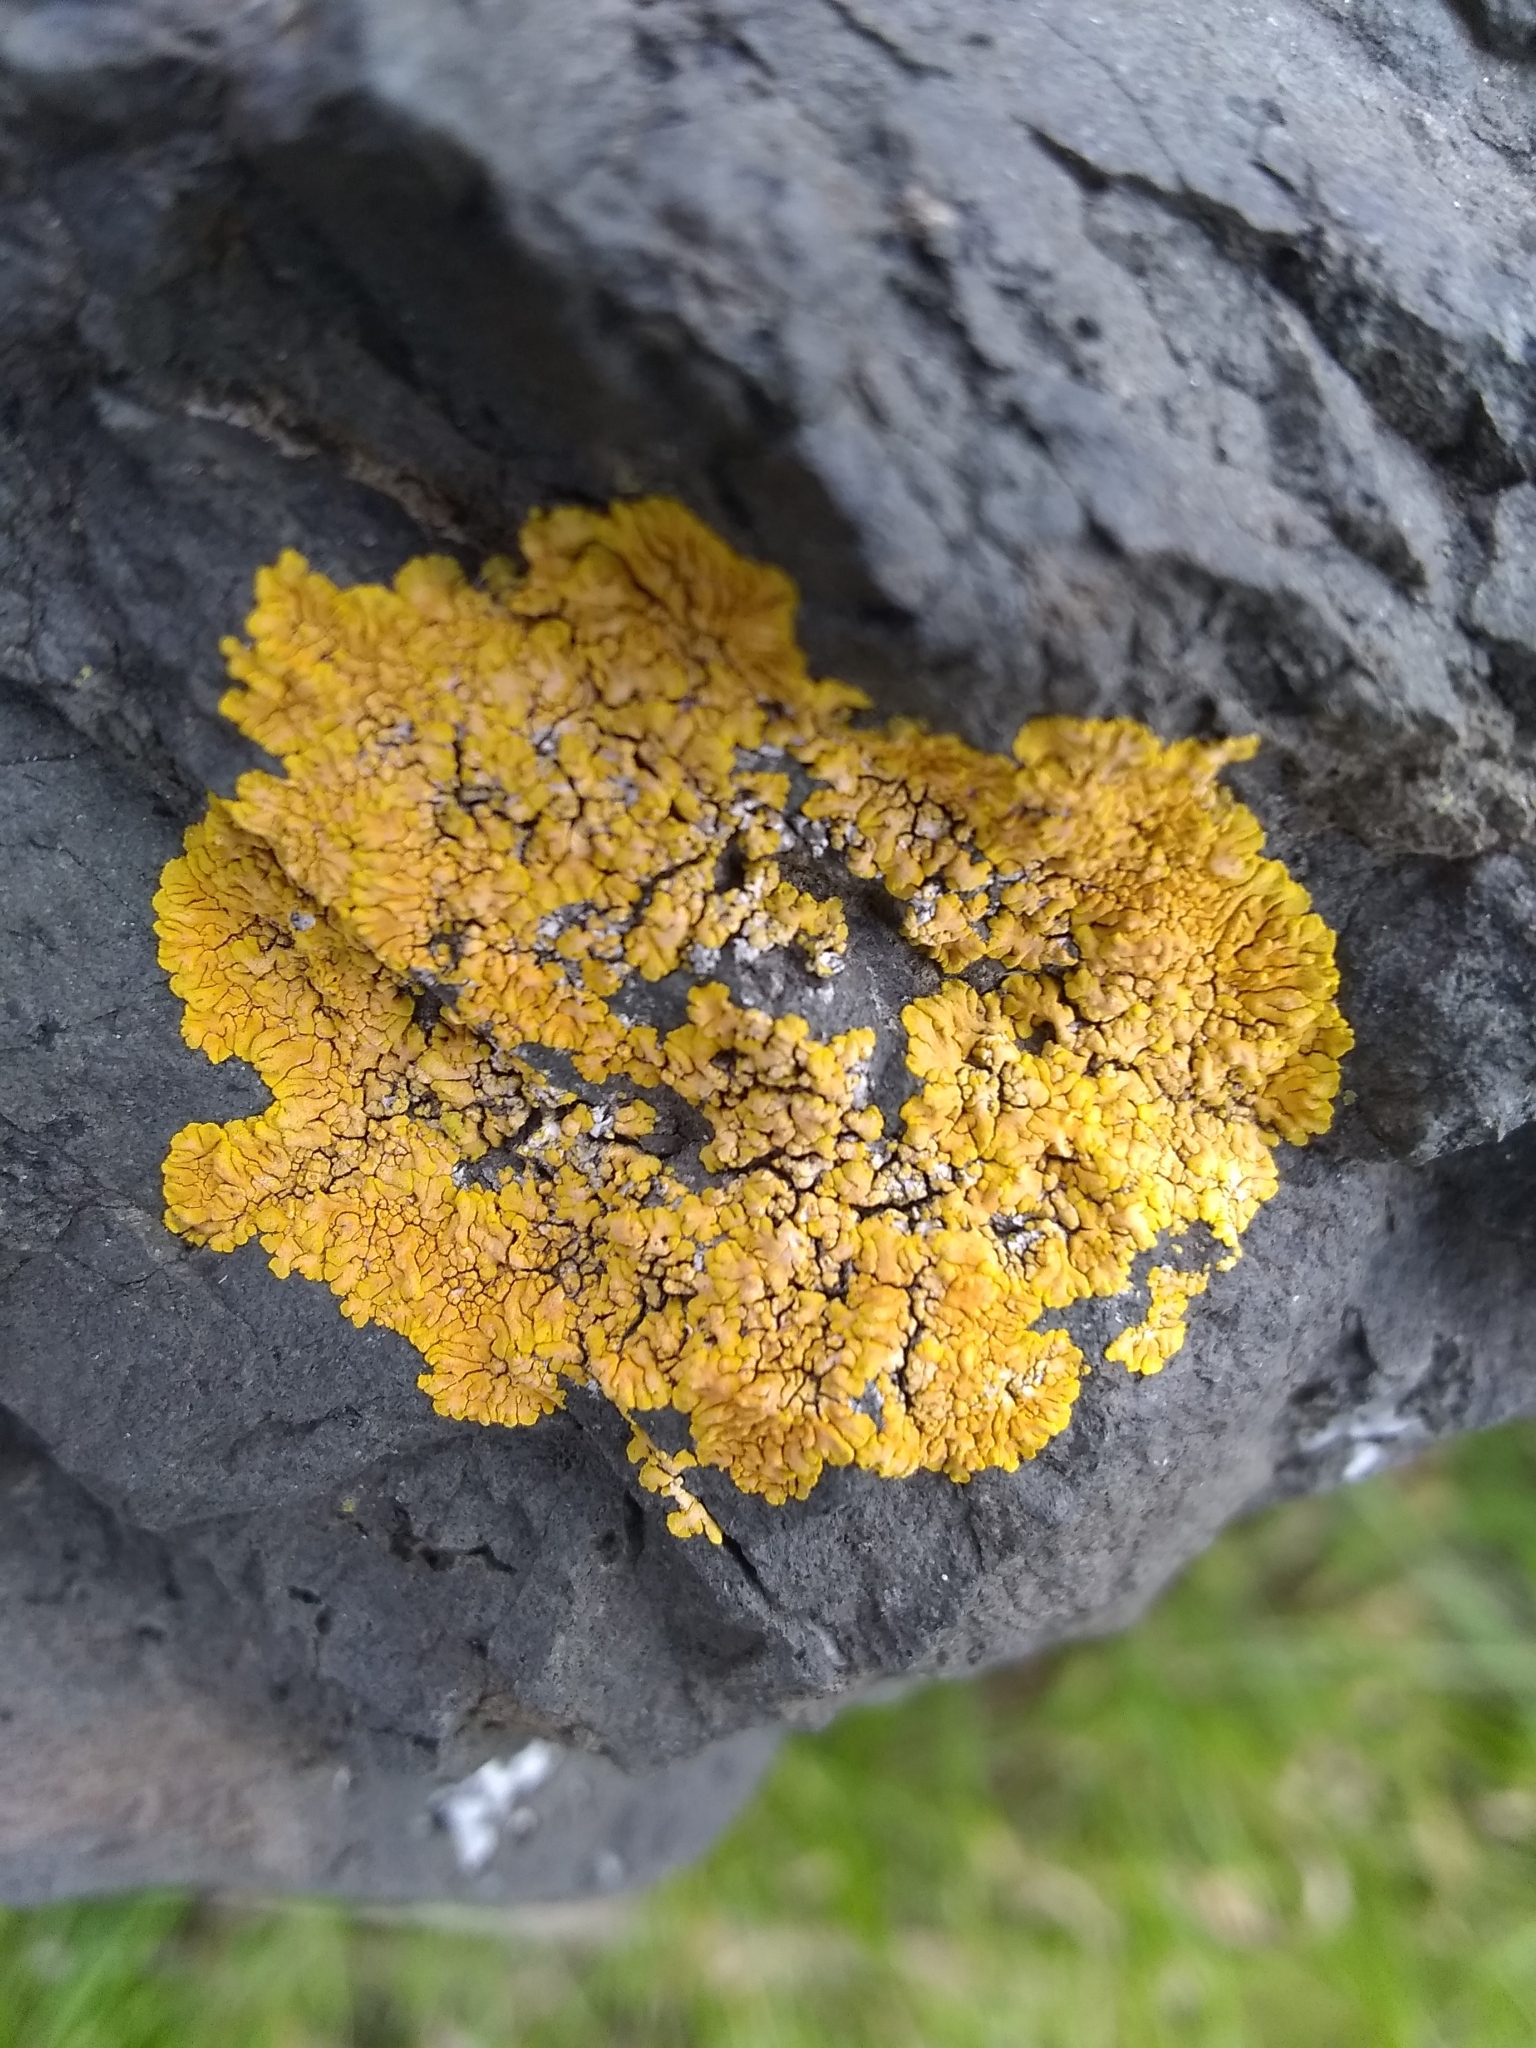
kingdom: Fungi
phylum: Ascomycota
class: Lecanoromycetes
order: Teloschistales
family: Teloschistaceae
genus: Xanthoria
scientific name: Xanthoria parietina
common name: Common orange lichen
